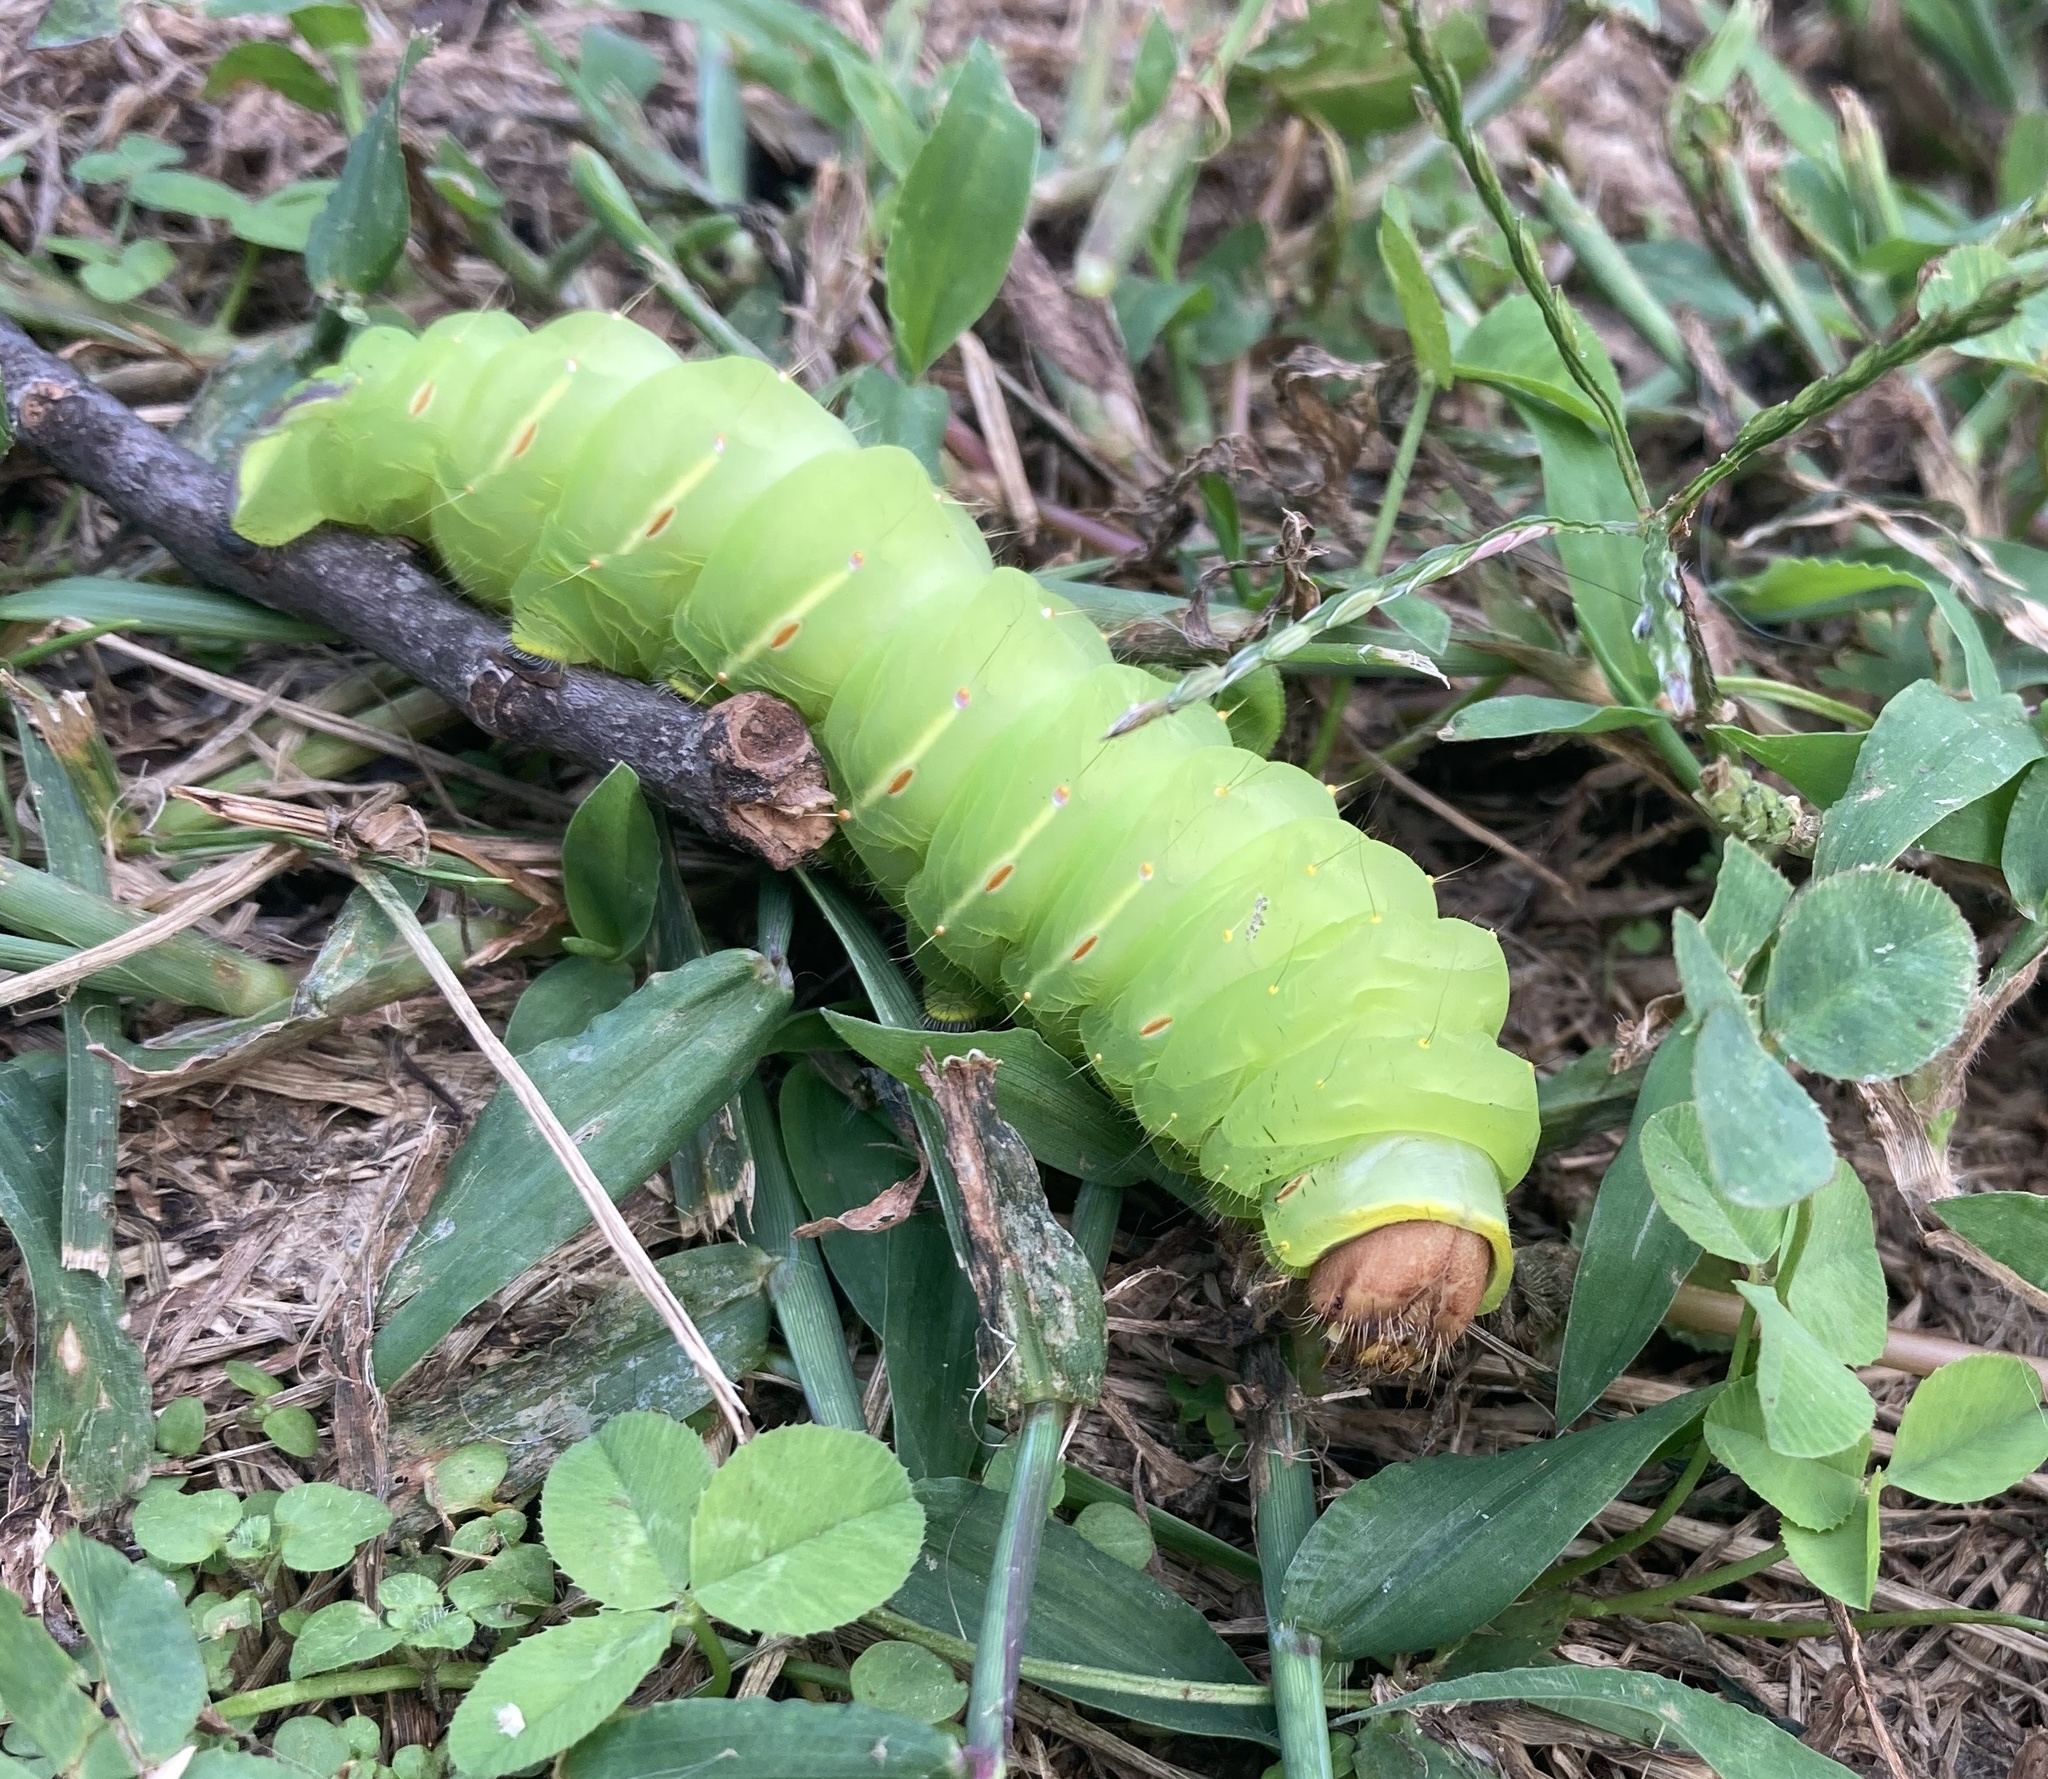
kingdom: Animalia
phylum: Arthropoda
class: Insecta
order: Lepidoptera
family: Saturniidae
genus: Antheraea
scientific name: Antheraea polyphemus
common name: Polyphemus moth
